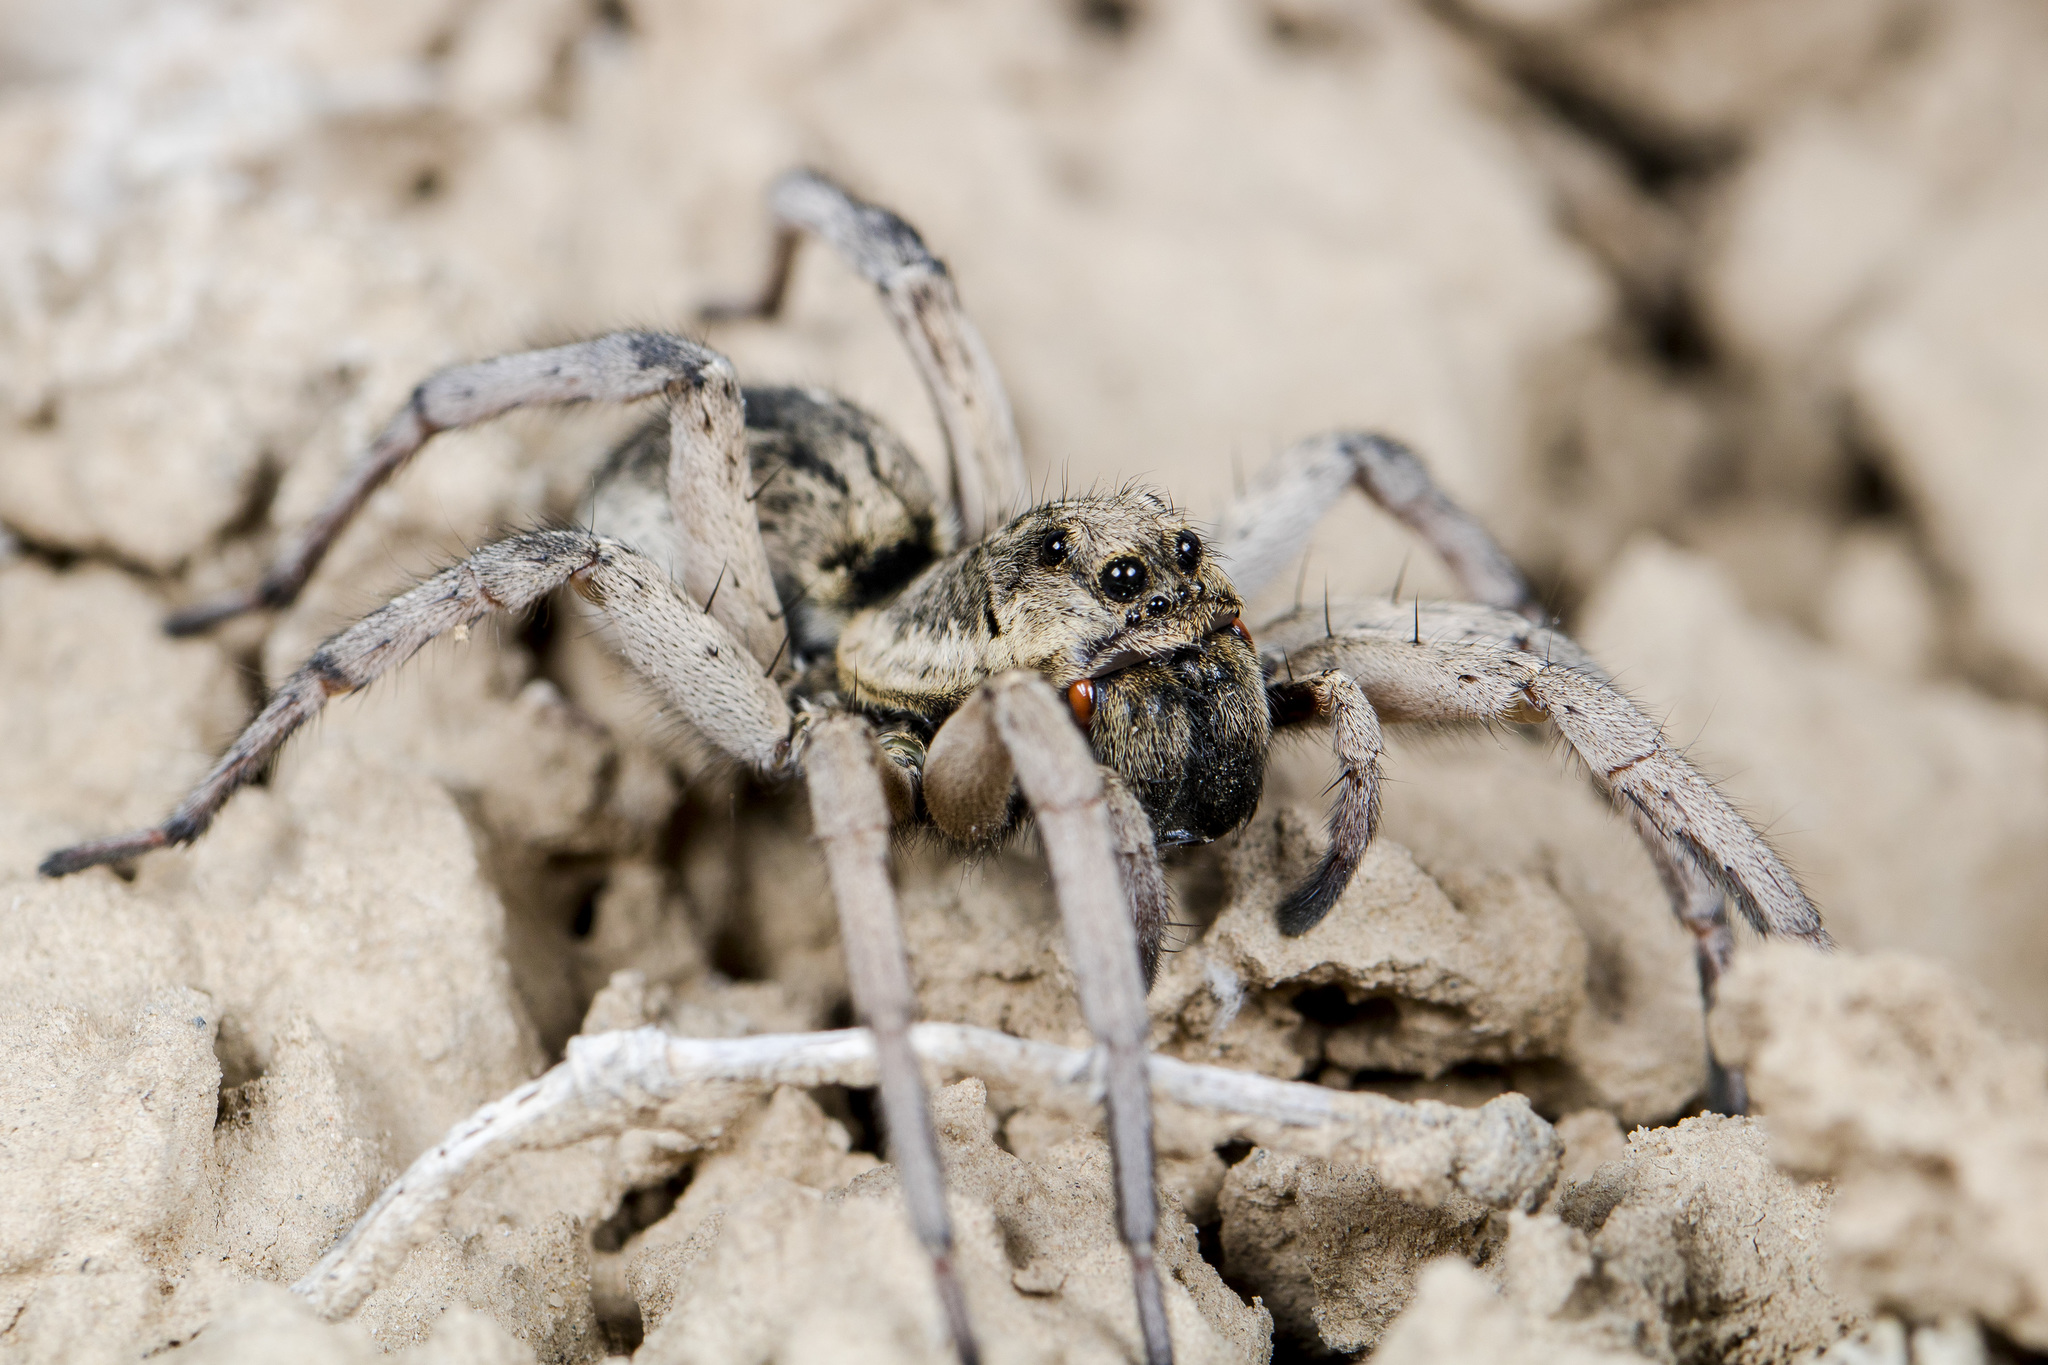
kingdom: Animalia
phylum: Arthropoda
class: Arachnida
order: Araneae
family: Lycosidae
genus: Alopecosa
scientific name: Alopecosa marikovskyi
